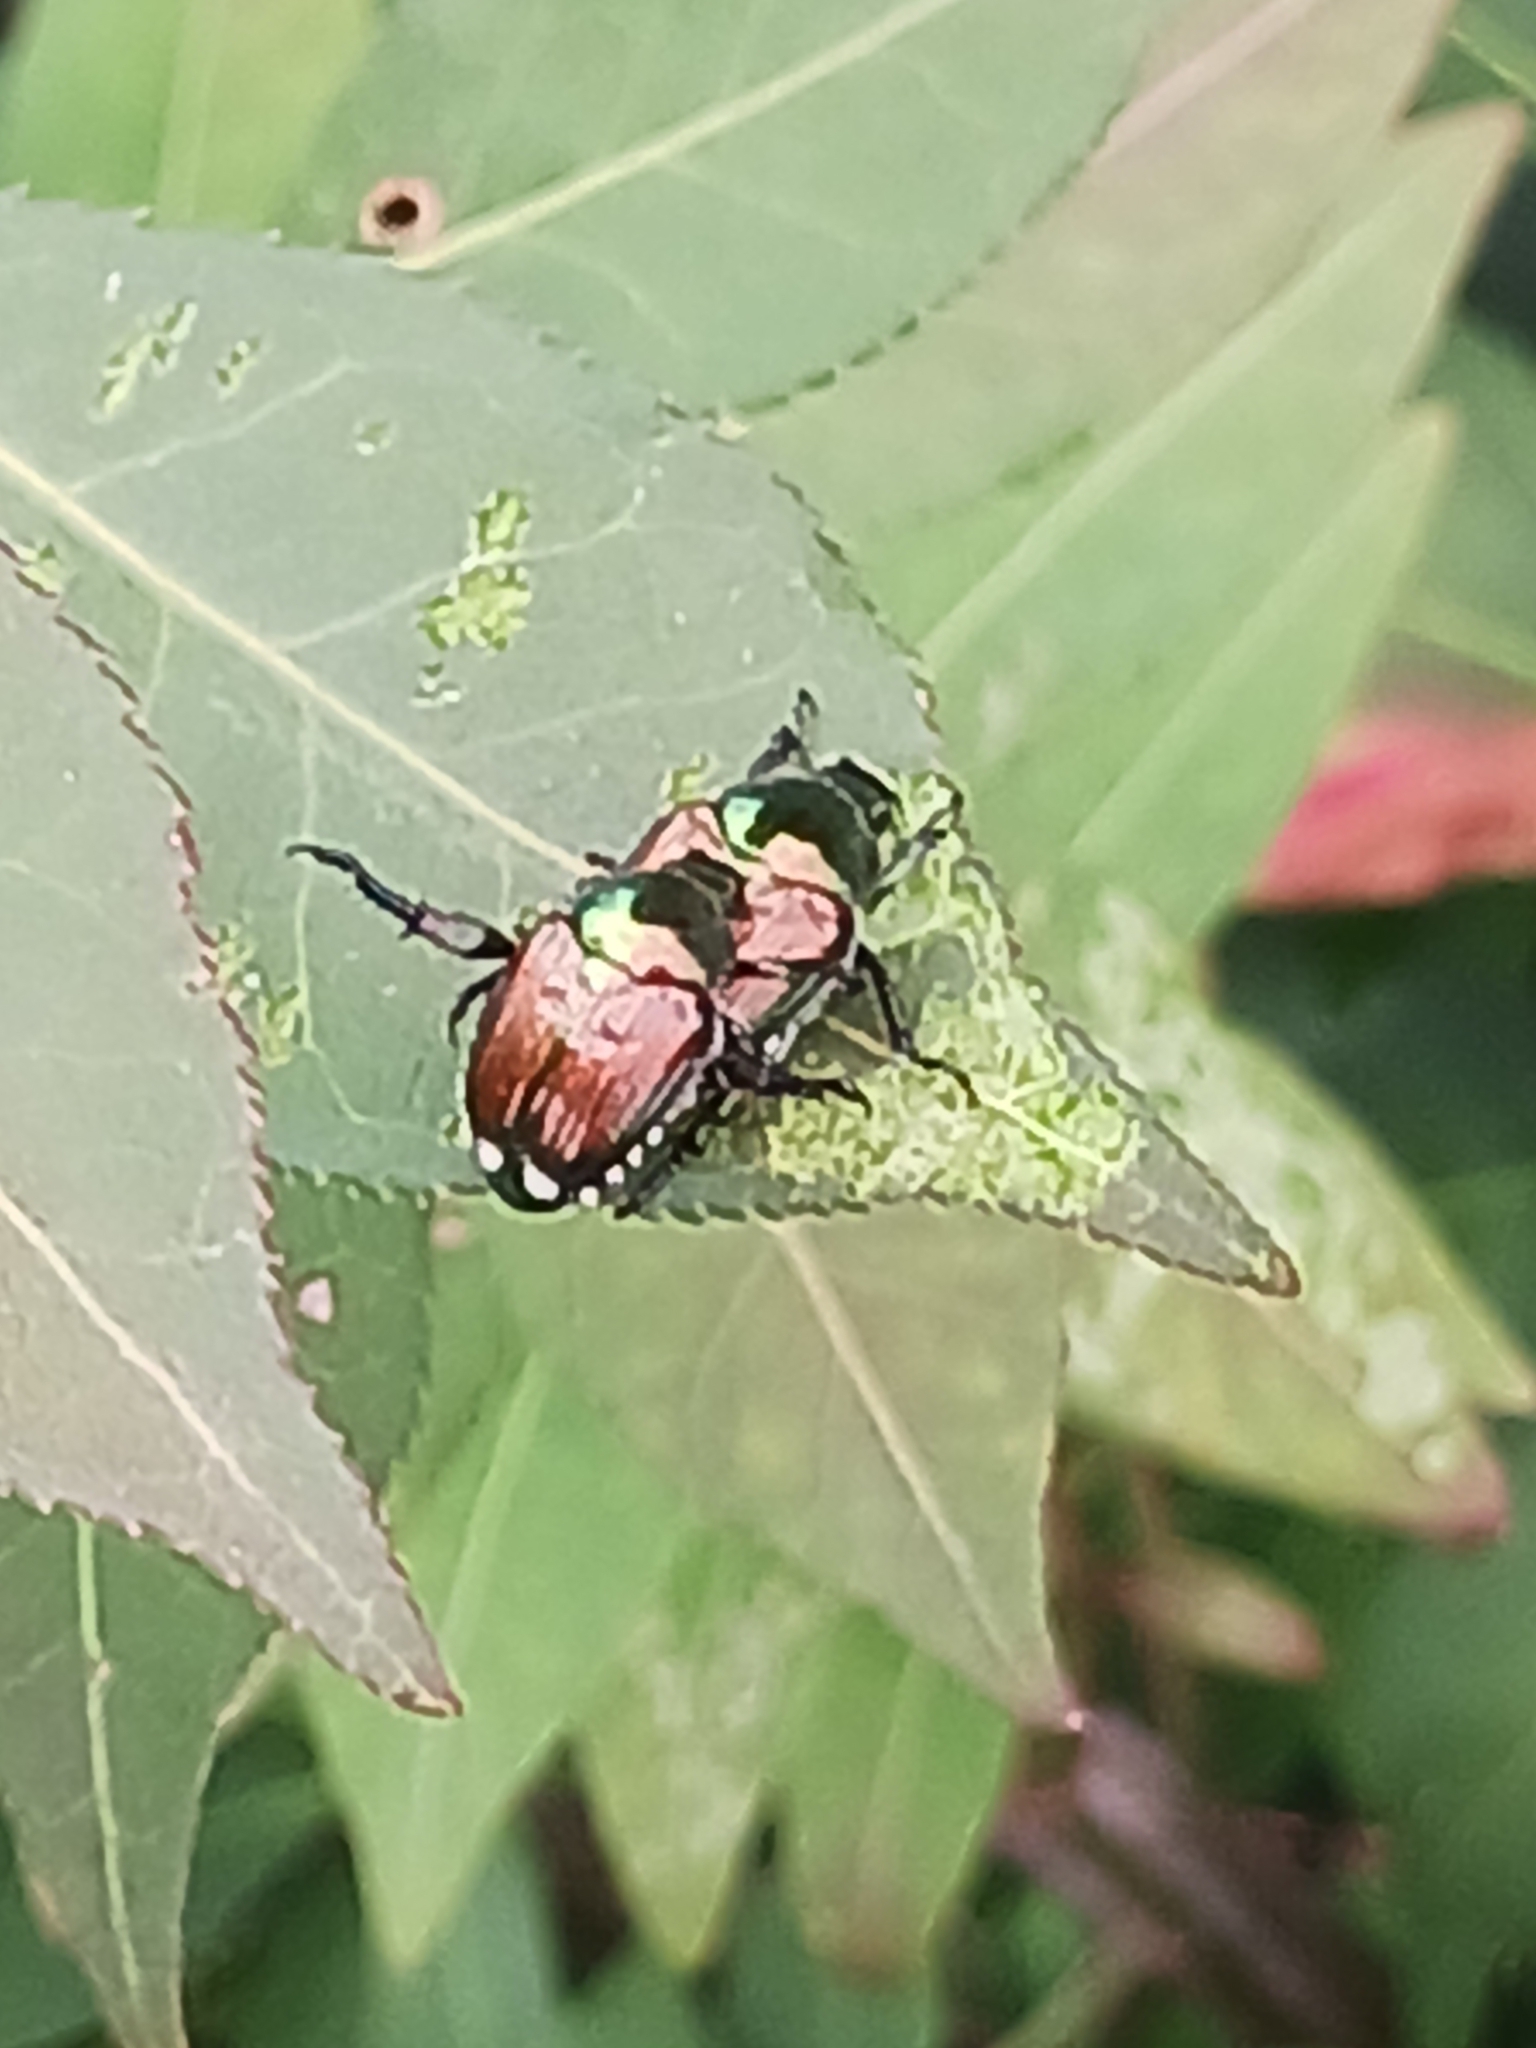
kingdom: Animalia
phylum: Arthropoda
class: Insecta
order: Coleoptera
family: Scarabaeidae
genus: Popillia
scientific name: Popillia japonica
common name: Japanese beetle
